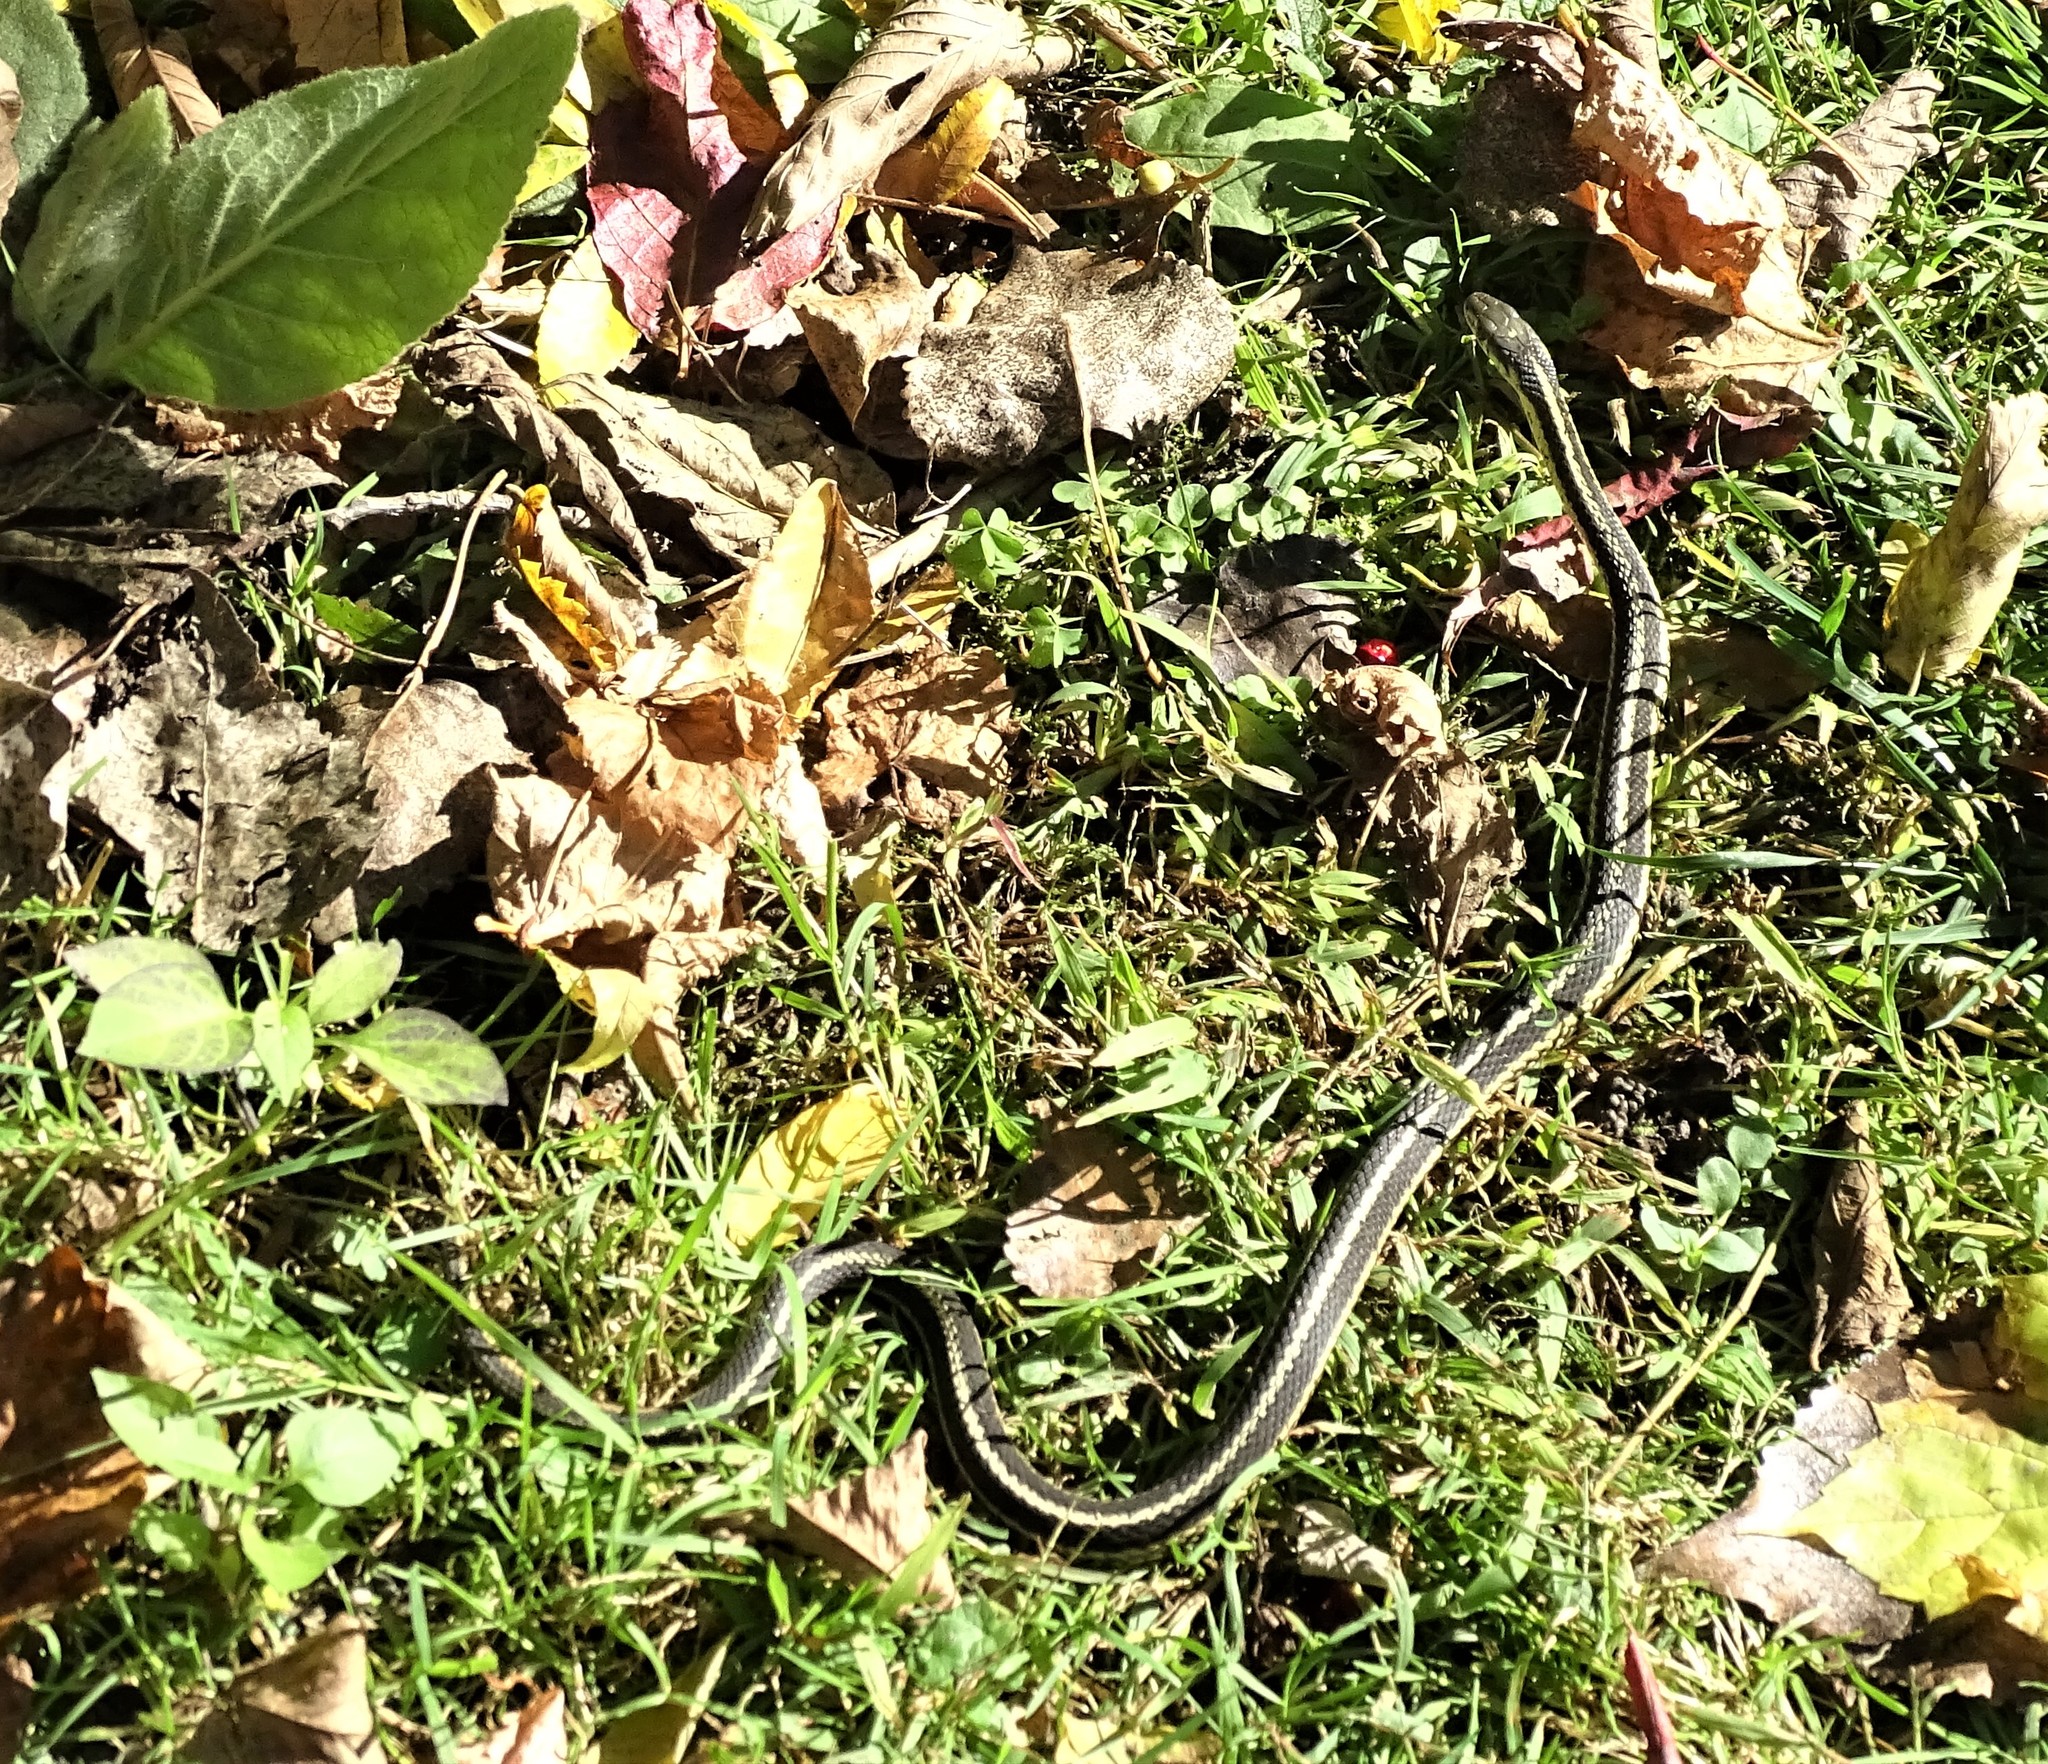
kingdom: Animalia
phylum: Chordata
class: Squamata
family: Colubridae
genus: Thamnophis
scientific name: Thamnophis sirtalis
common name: Common garter snake
